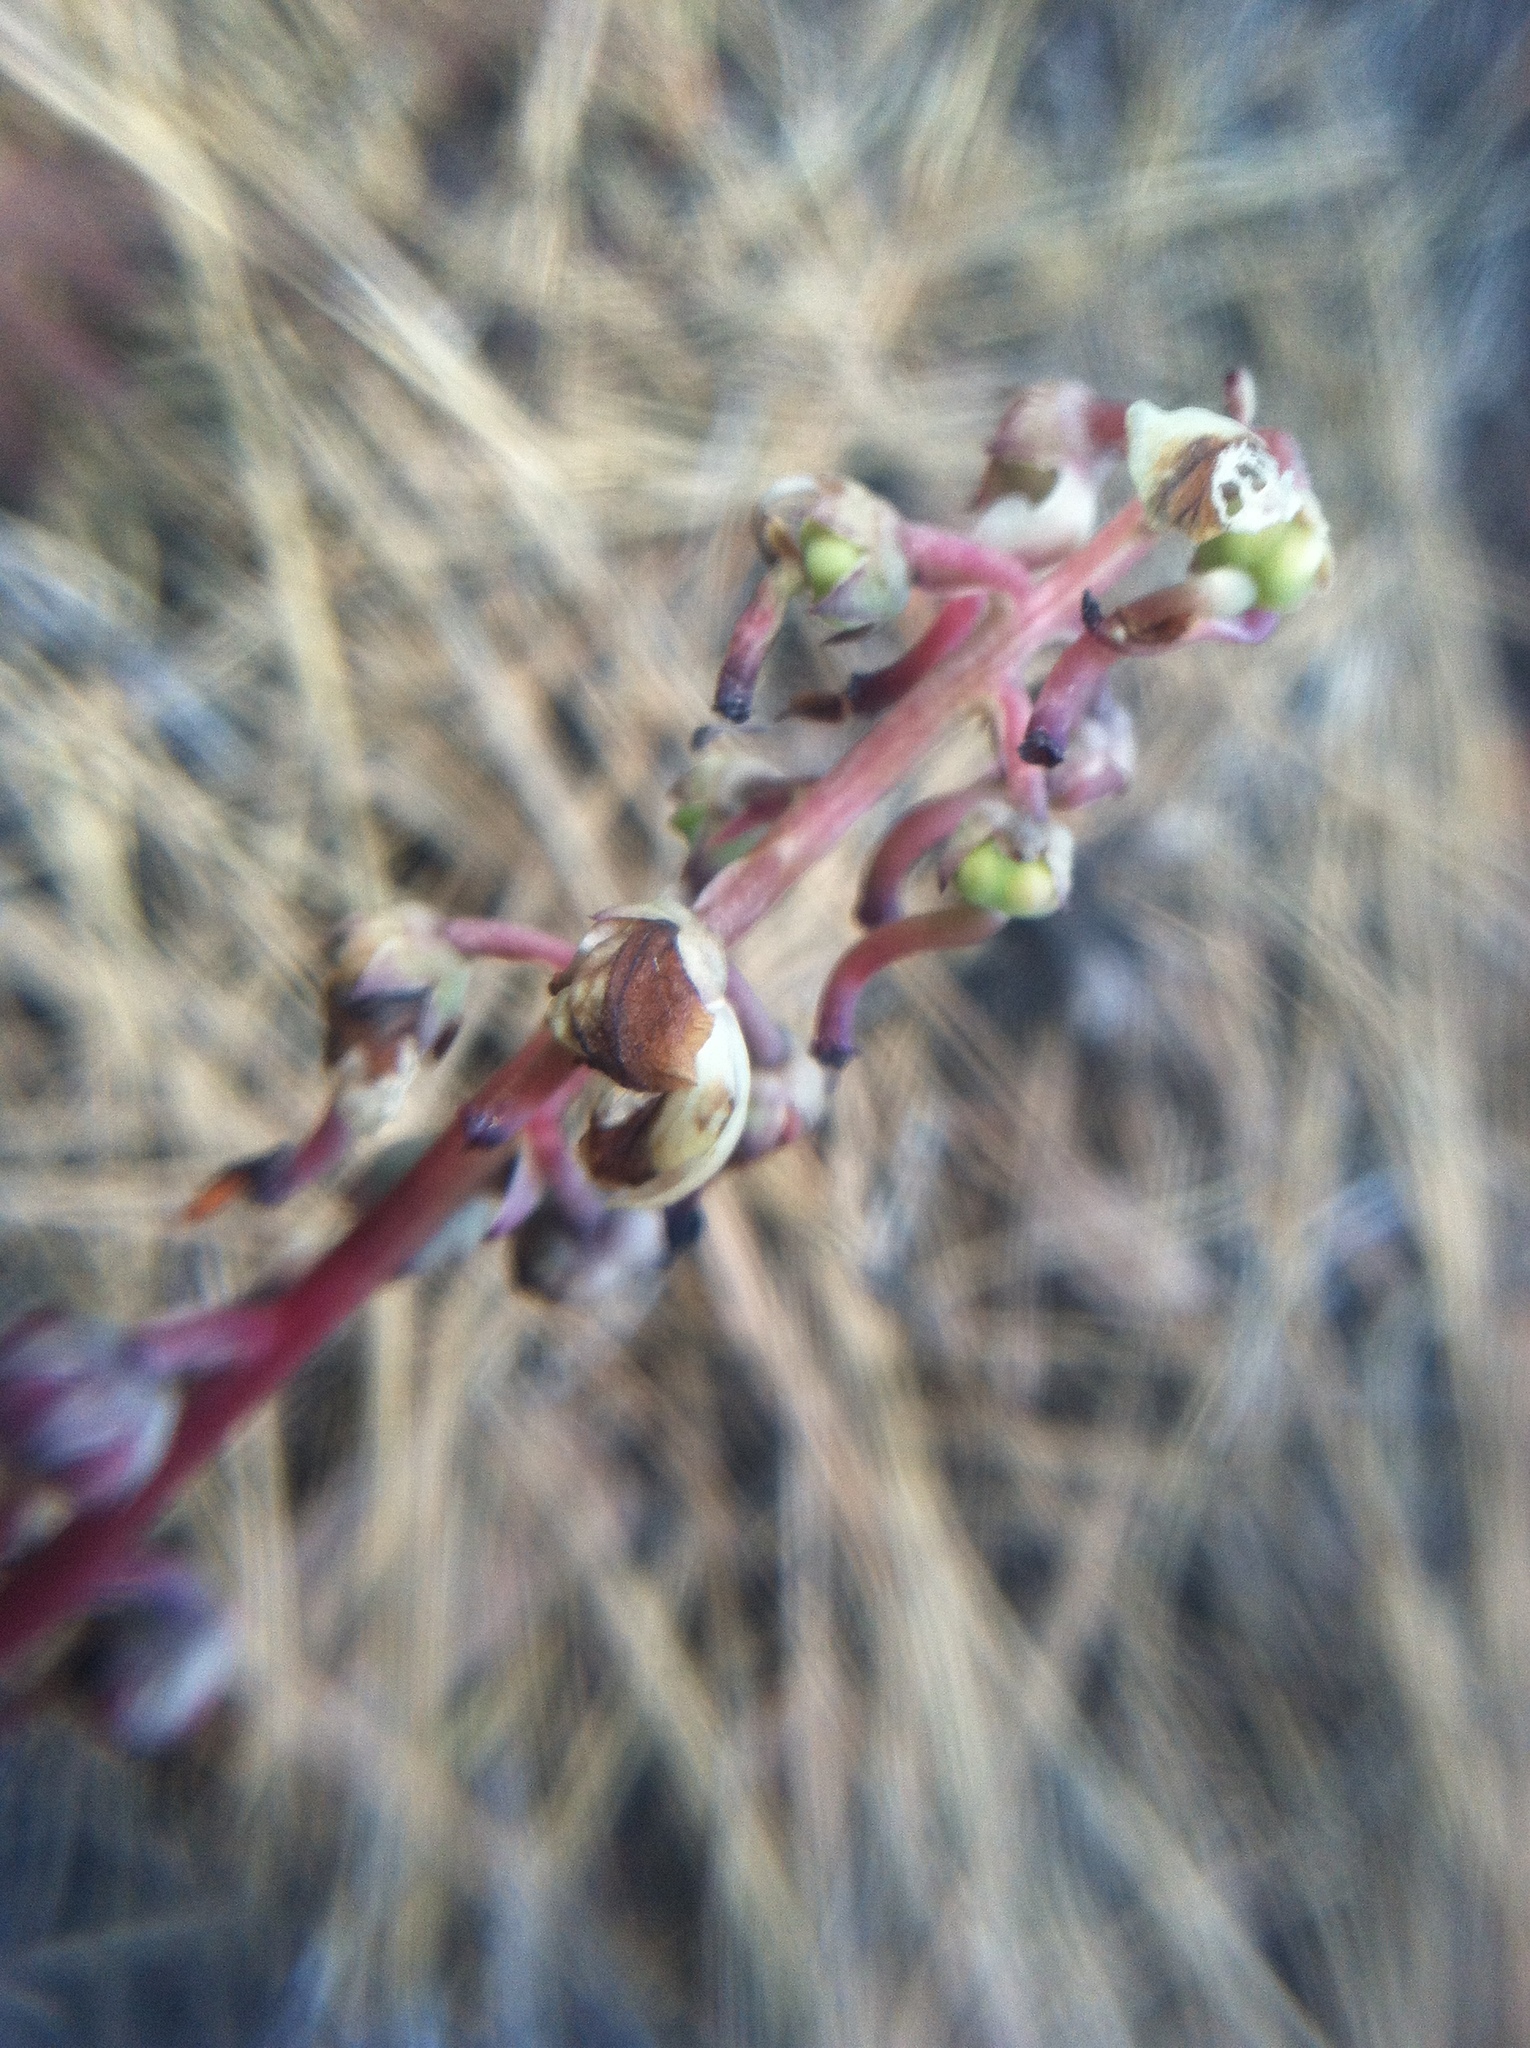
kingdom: Plantae
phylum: Tracheophyta
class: Magnoliopsida
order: Ericales
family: Ericaceae
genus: Pyrola
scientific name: Pyrola aphylla
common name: Leafless wintergreen
